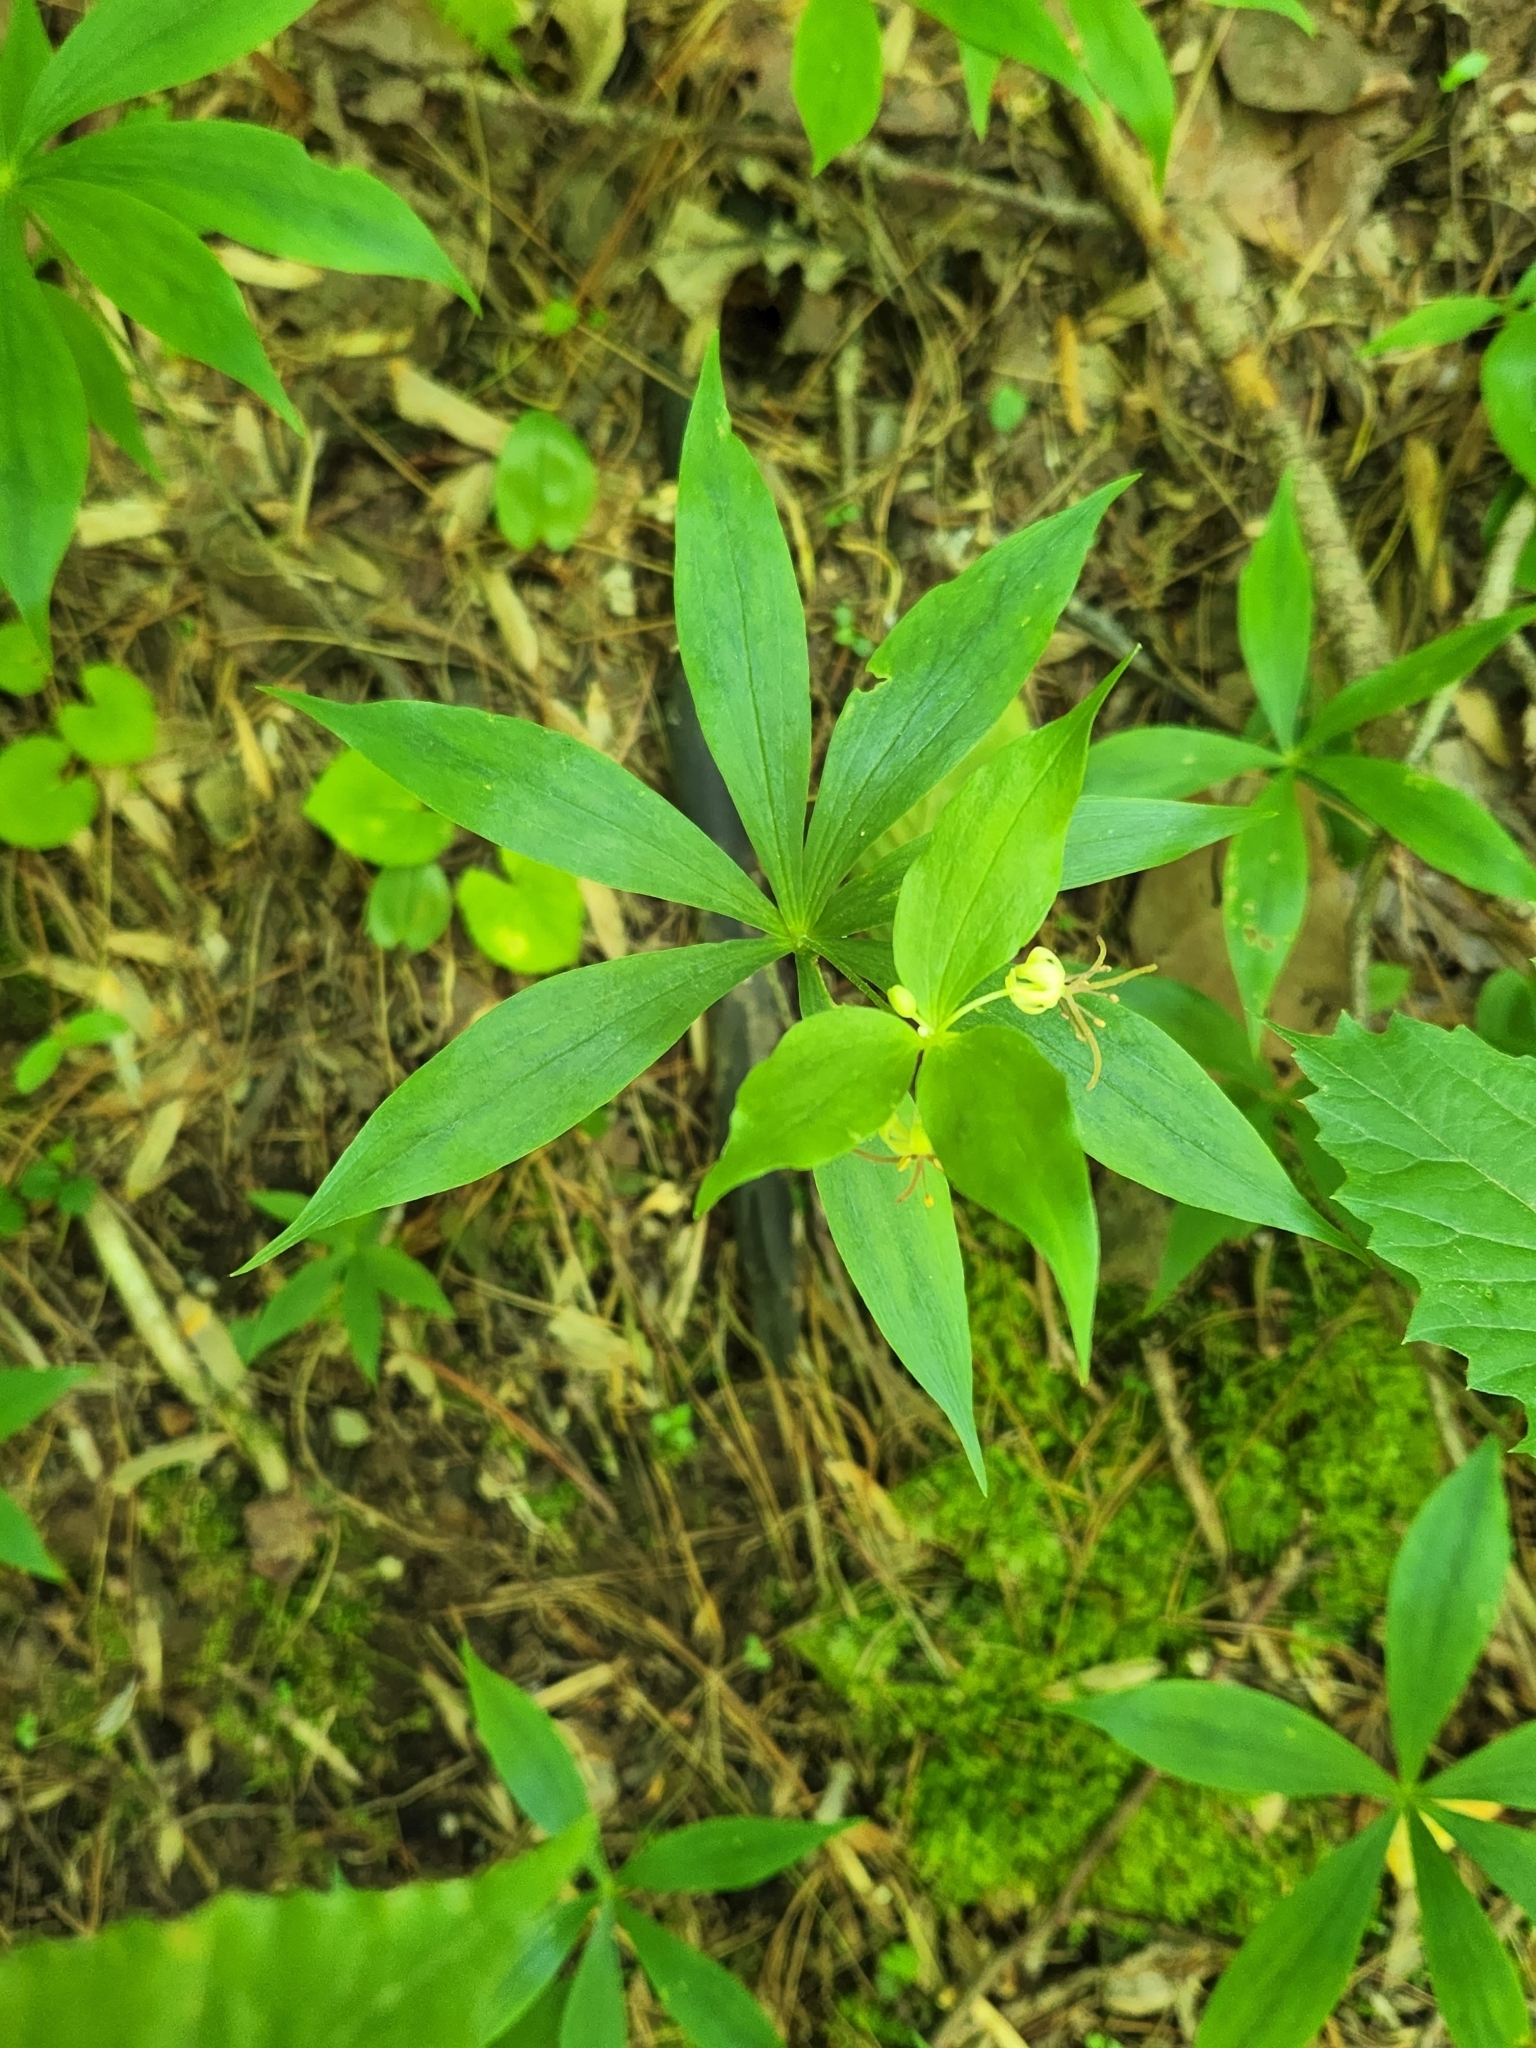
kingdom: Plantae
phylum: Tracheophyta
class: Liliopsida
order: Liliales
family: Liliaceae
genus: Medeola
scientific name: Medeola virginiana
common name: Indian cucumber-root
